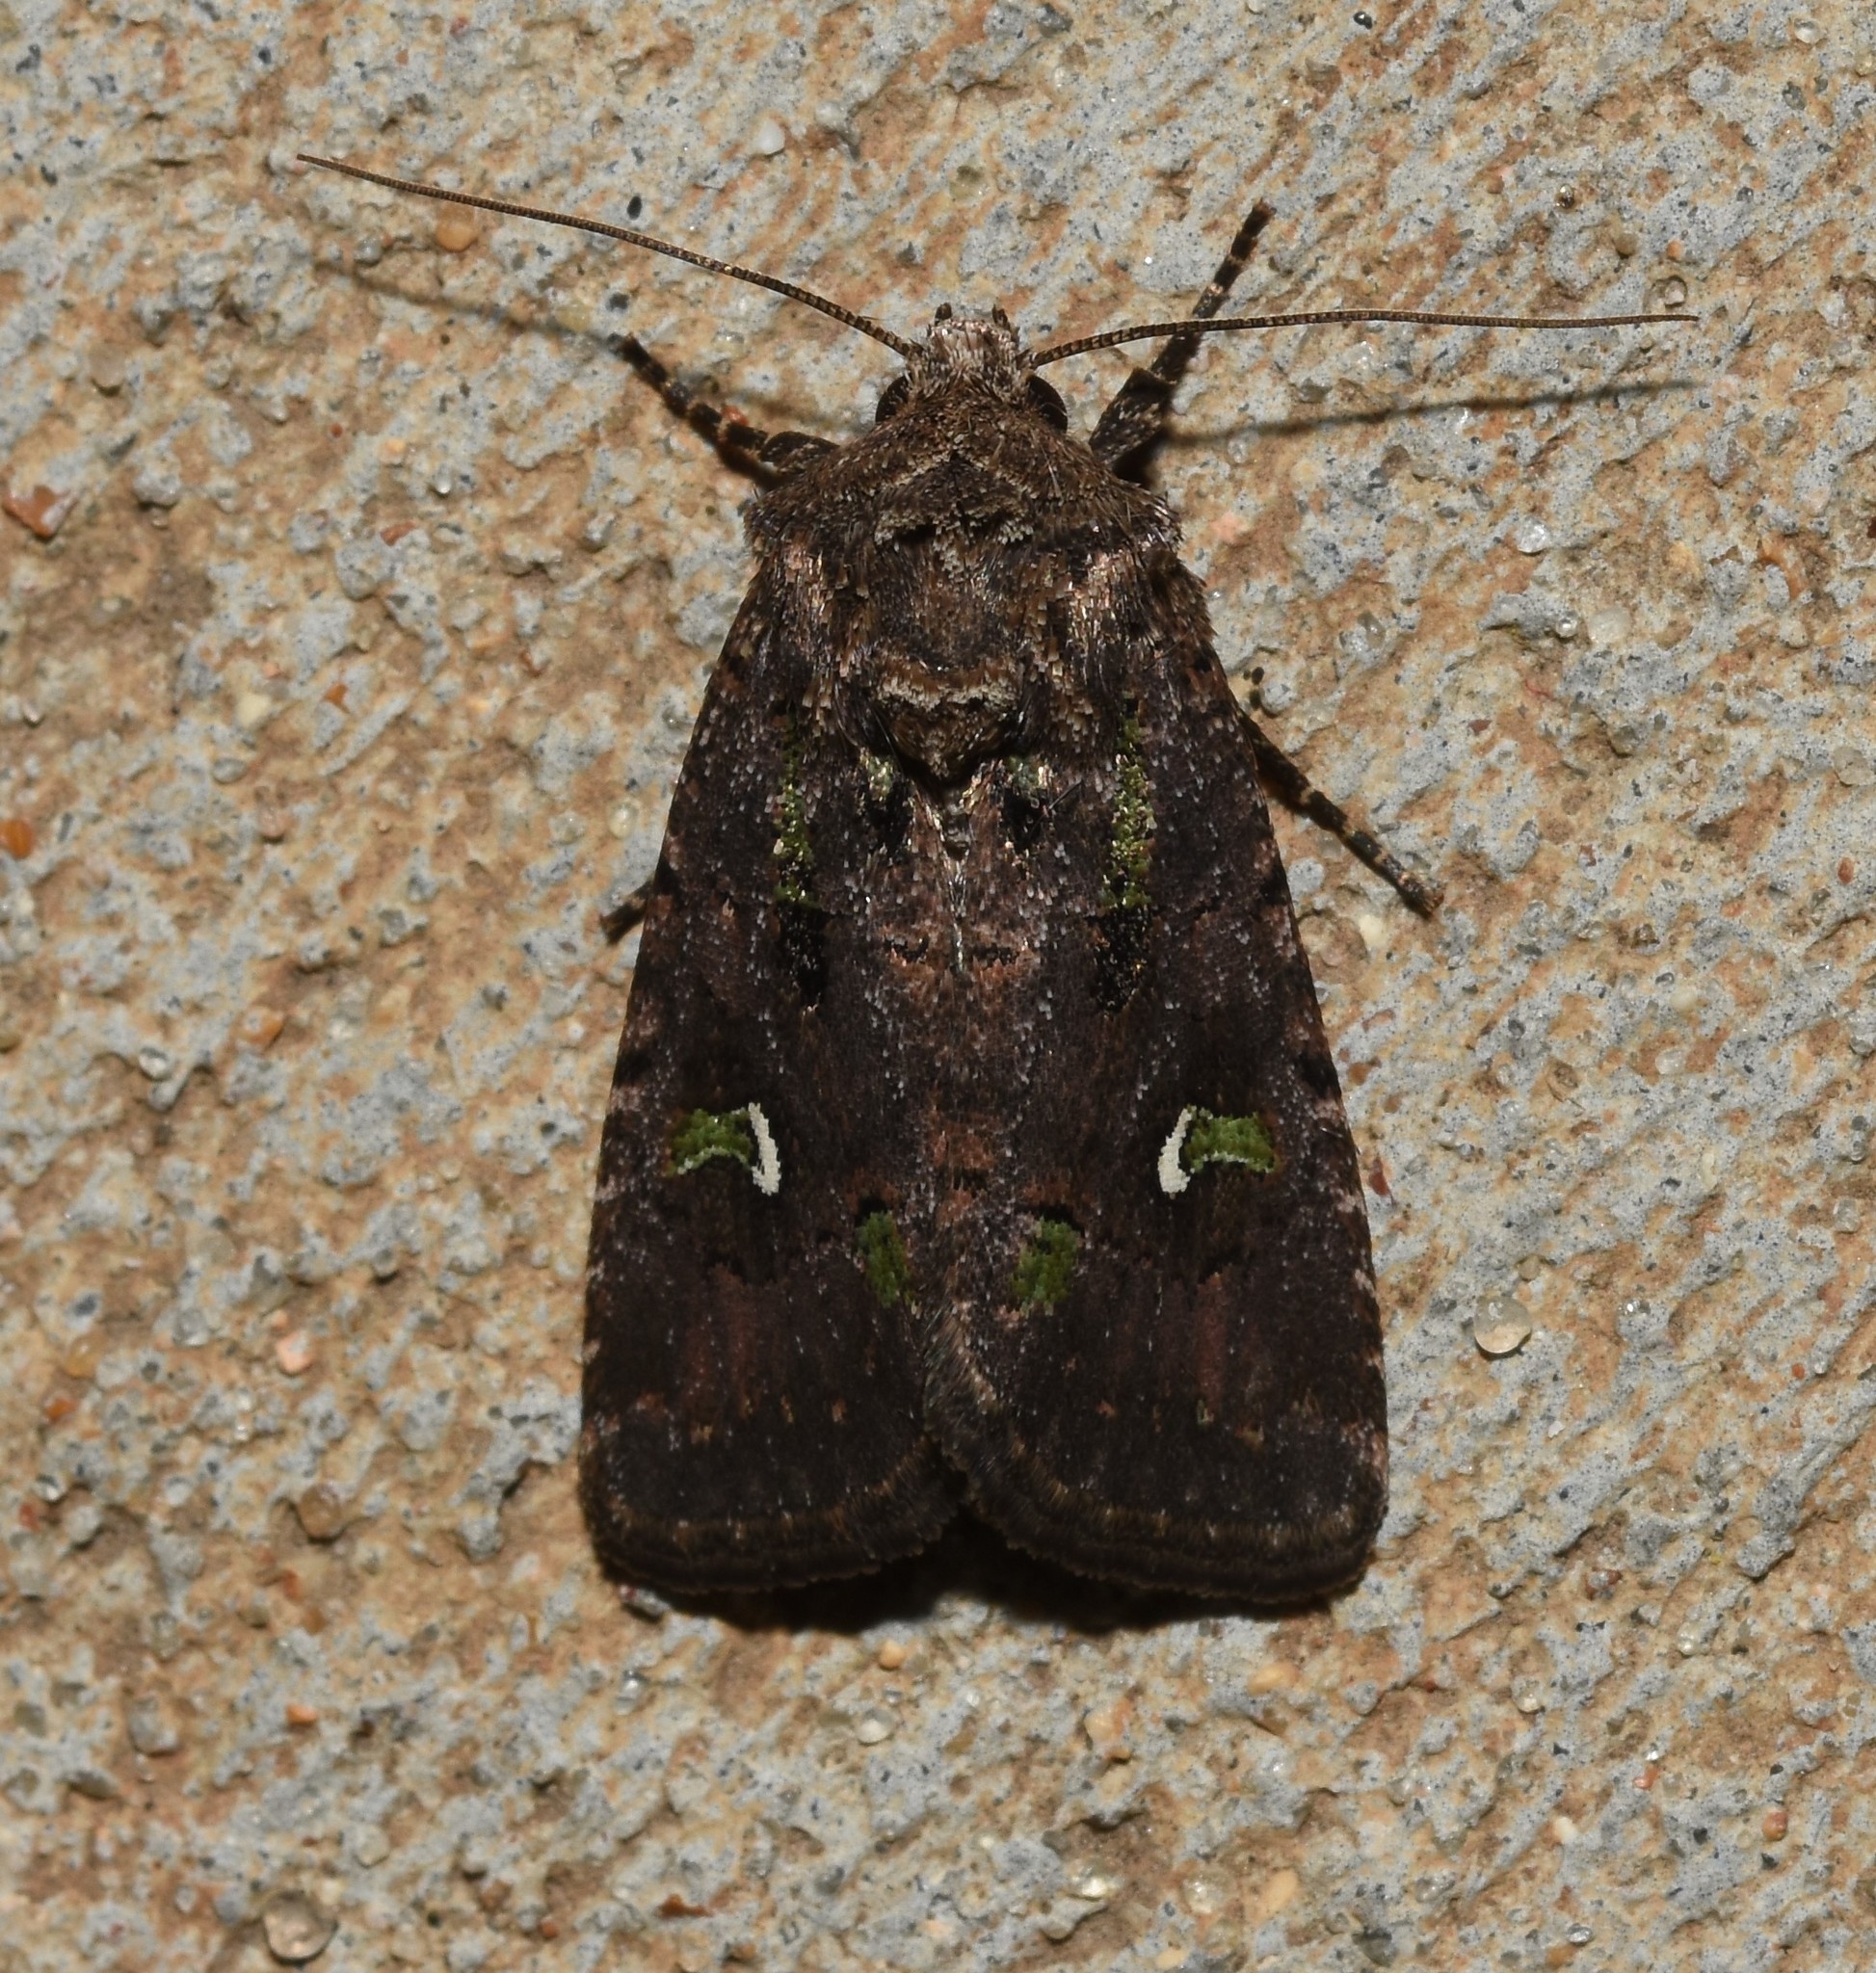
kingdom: Animalia
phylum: Arthropoda
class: Insecta
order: Lepidoptera
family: Noctuidae
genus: Lacinipolia
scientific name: Lacinipolia renigera
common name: Kidney-spotted minor
